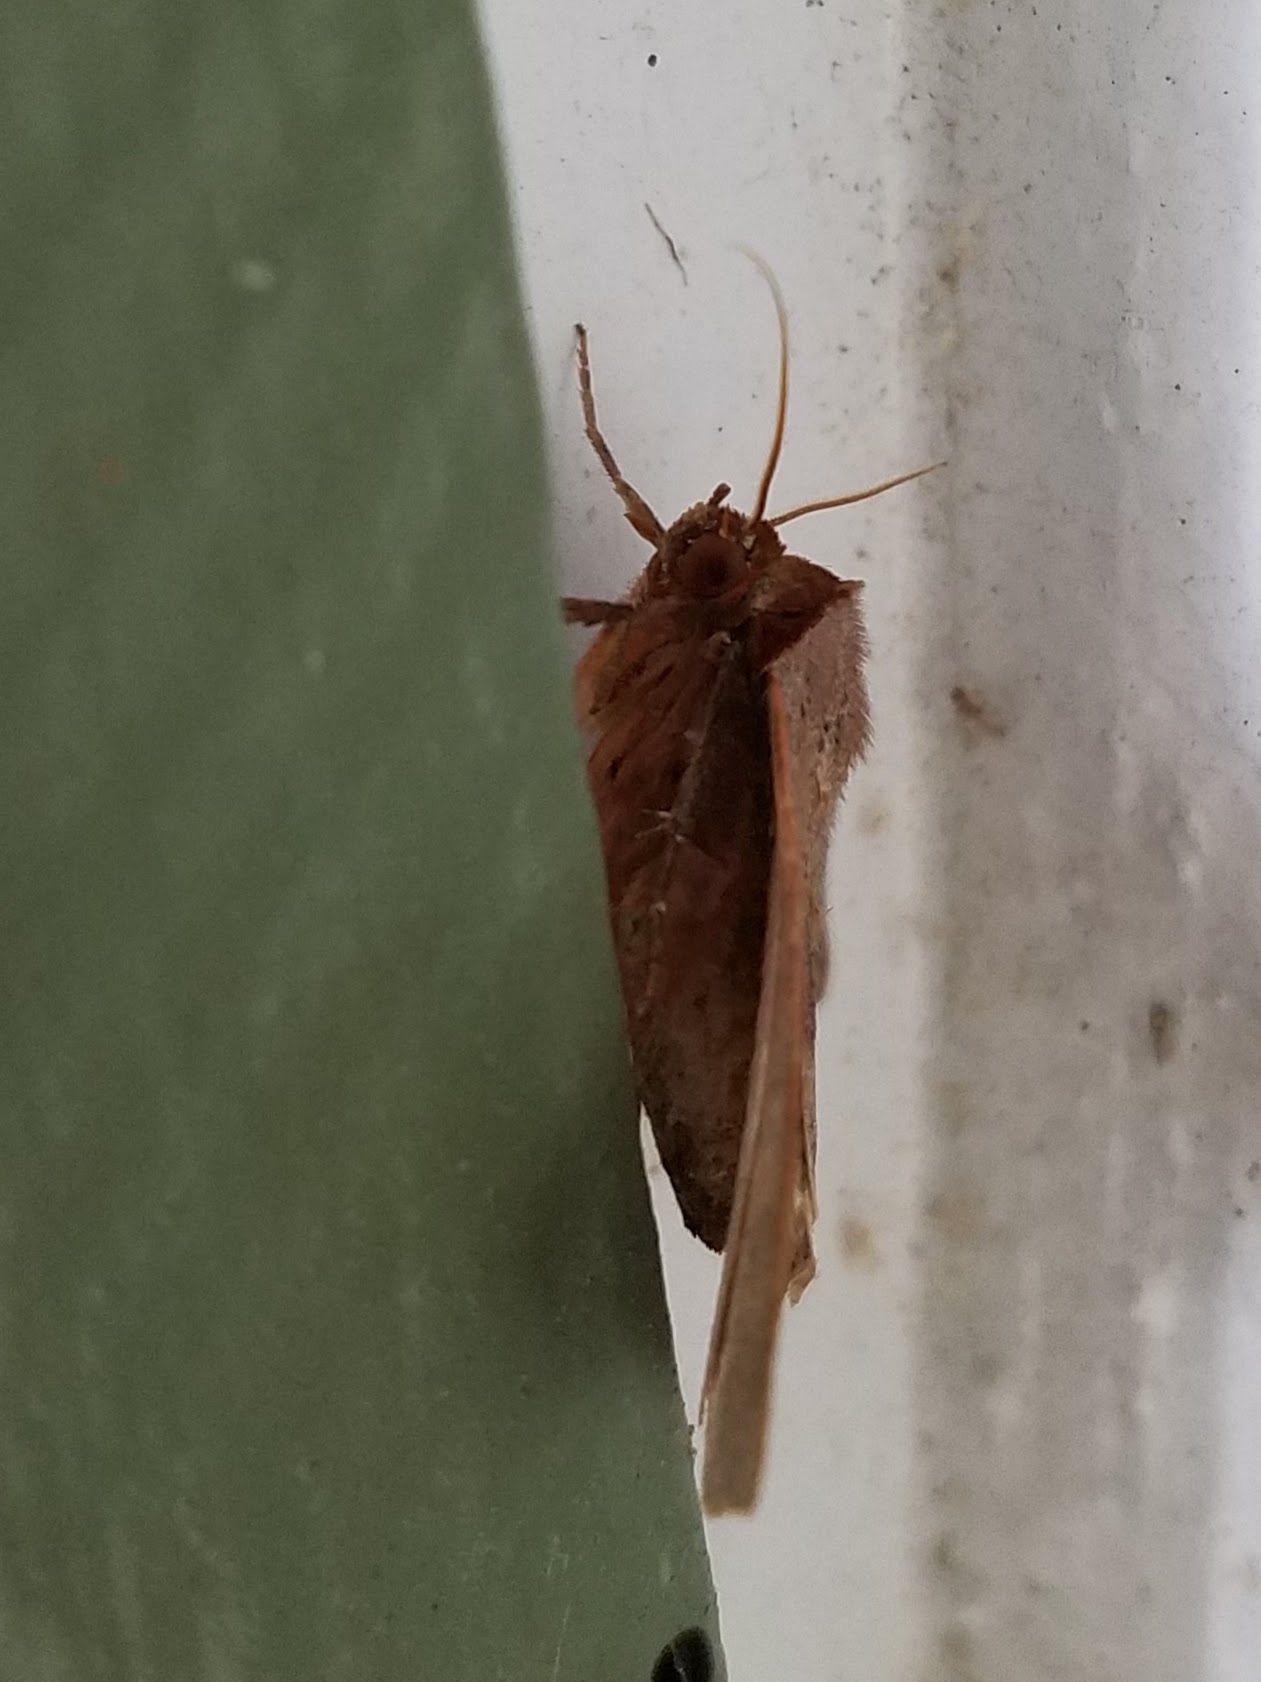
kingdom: Animalia
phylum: Arthropoda
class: Insecta
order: Lepidoptera
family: Erebidae
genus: Panopoda
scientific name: Panopoda rufimargo
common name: Red-lined panopoda moth
